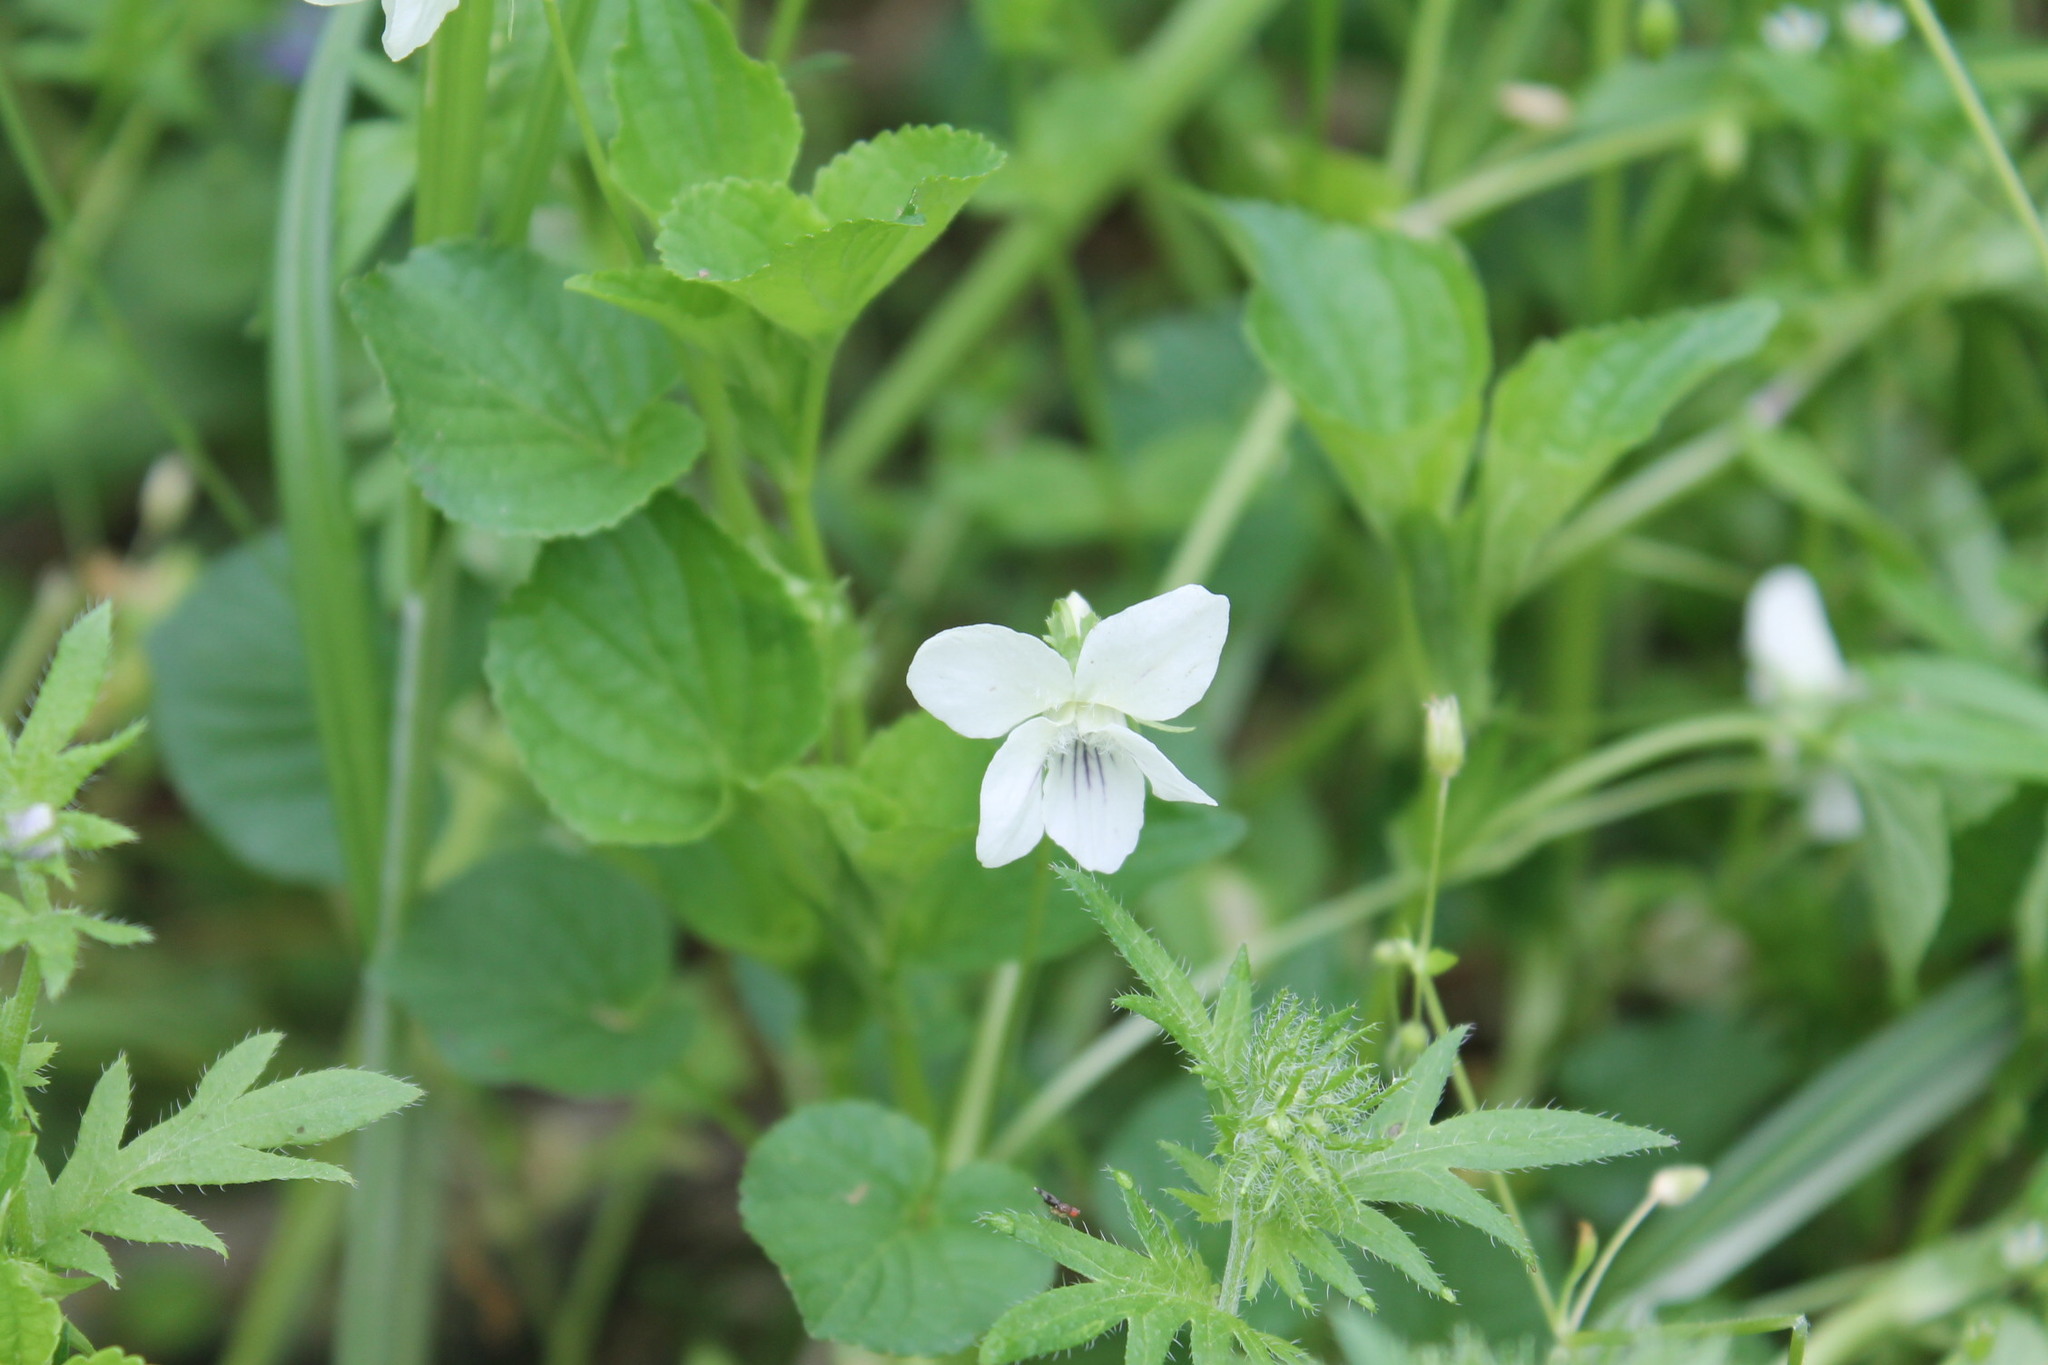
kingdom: Plantae
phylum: Tracheophyta
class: Magnoliopsida
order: Malpighiales
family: Violaceae
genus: Viola
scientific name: Viola striata
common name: Cream violet
